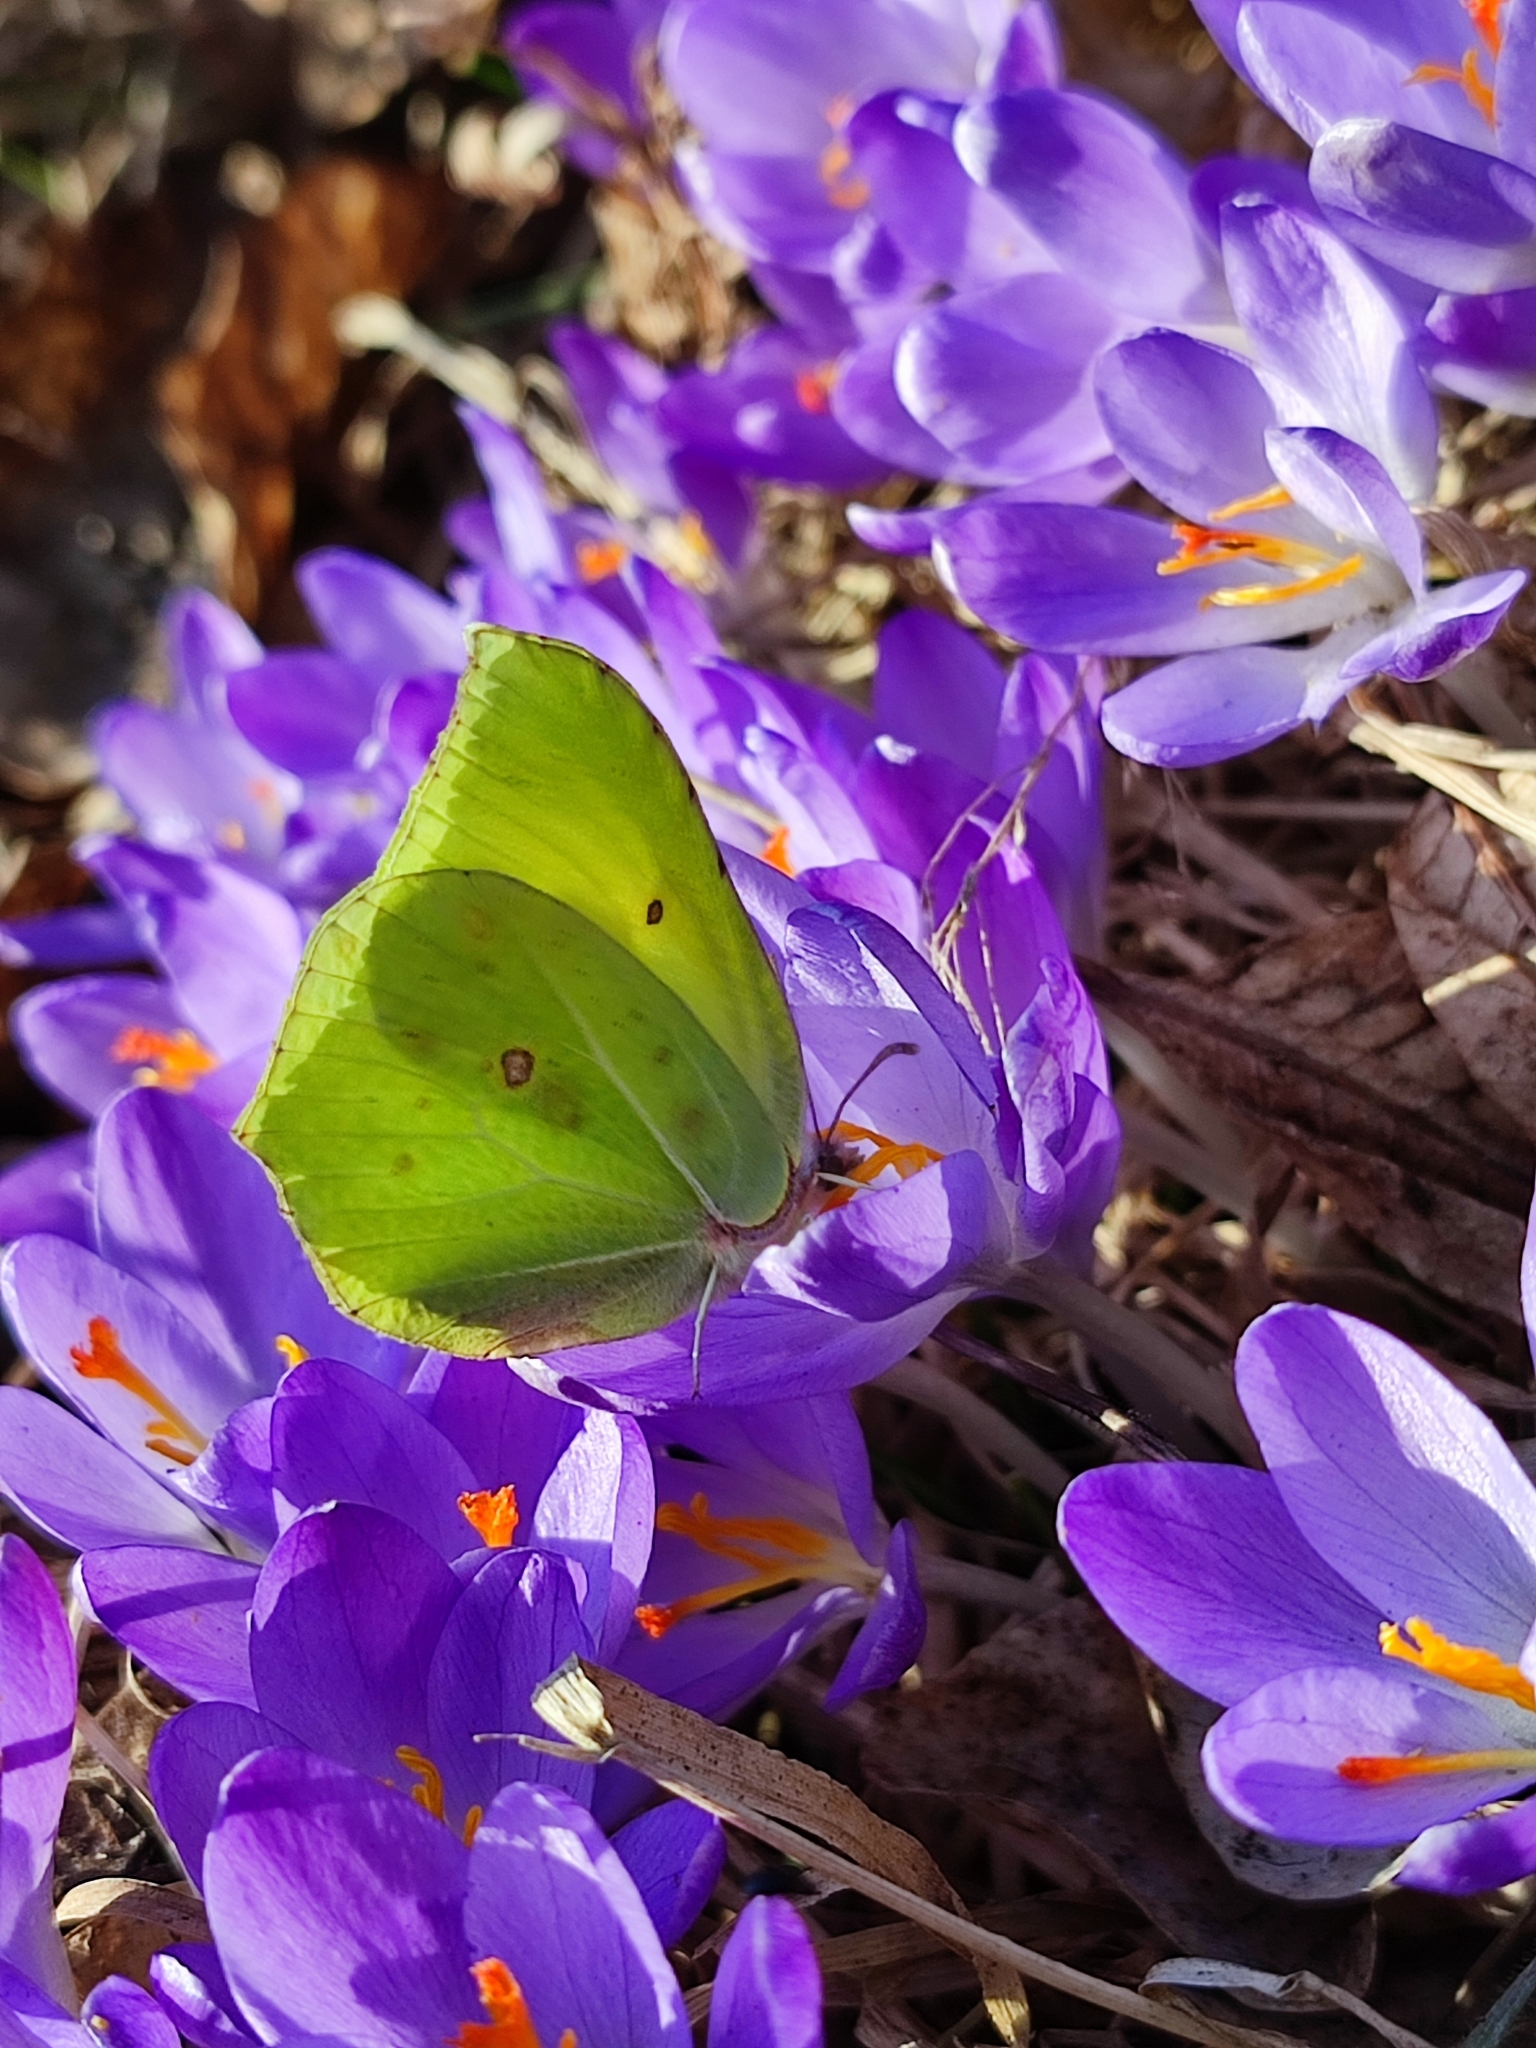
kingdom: Animalia
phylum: Arthropoda
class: Insecta
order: Lepidoptera
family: Pieridae
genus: Gonepteryx
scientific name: Gonepteryx rhamni
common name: Brimstone
